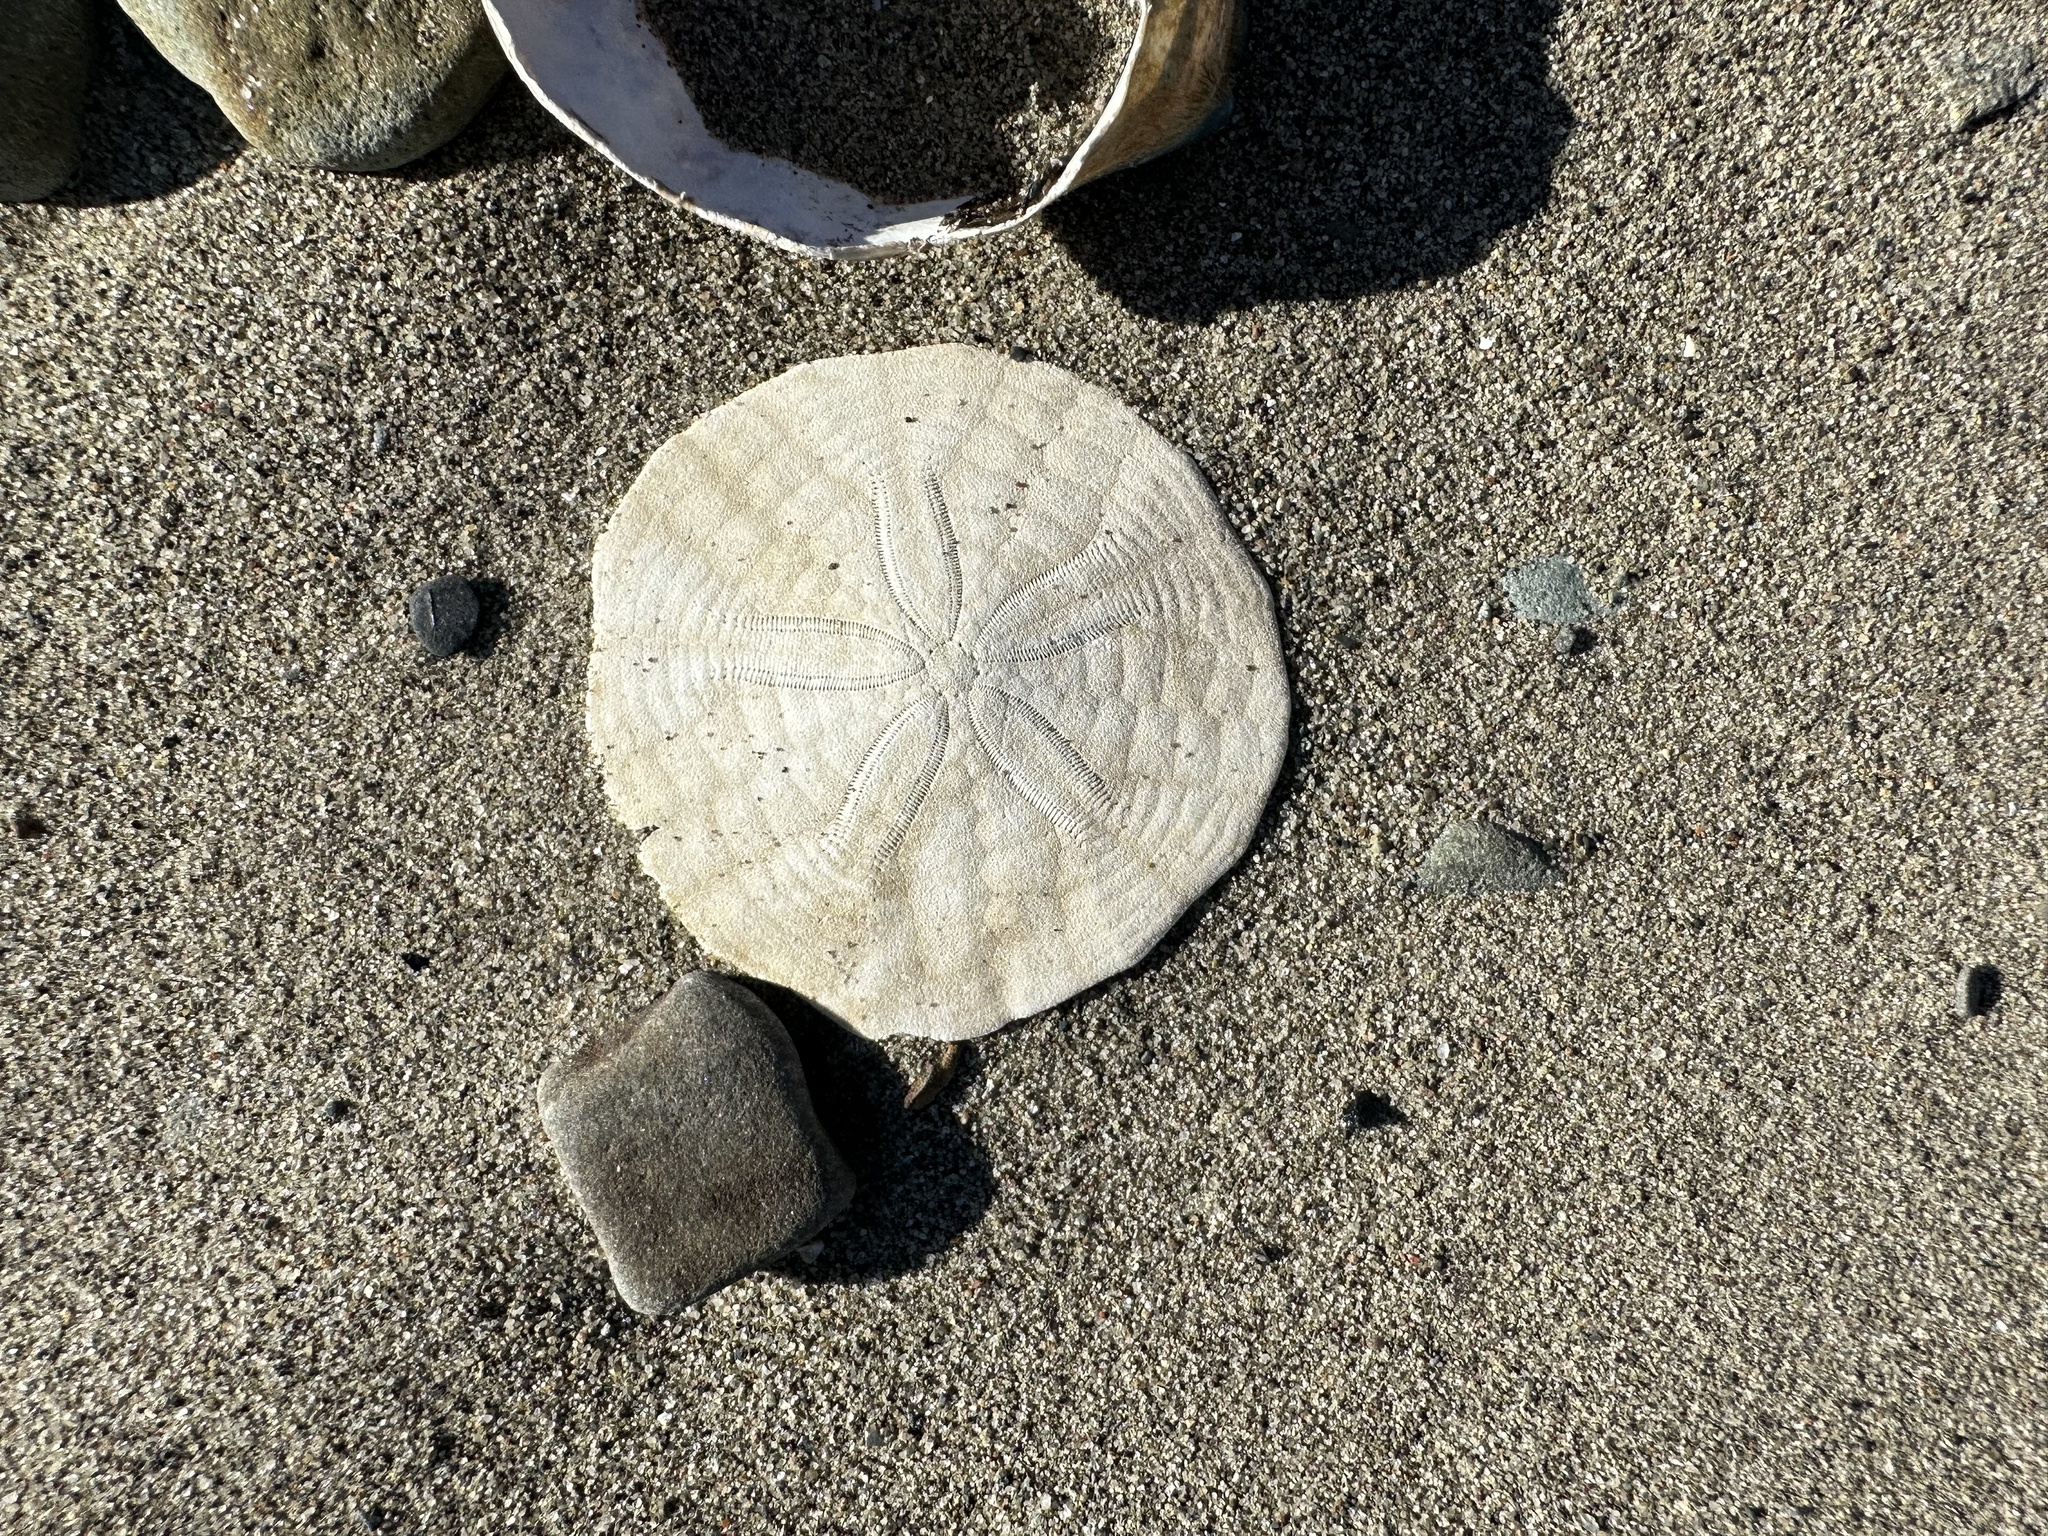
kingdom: Animalia
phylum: Echinodermata
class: Echinoidea
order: Echinolampadacea
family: Echinarachniidae
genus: Echinarachnius
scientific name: Echinarachnius parma
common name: Common sand dollar
